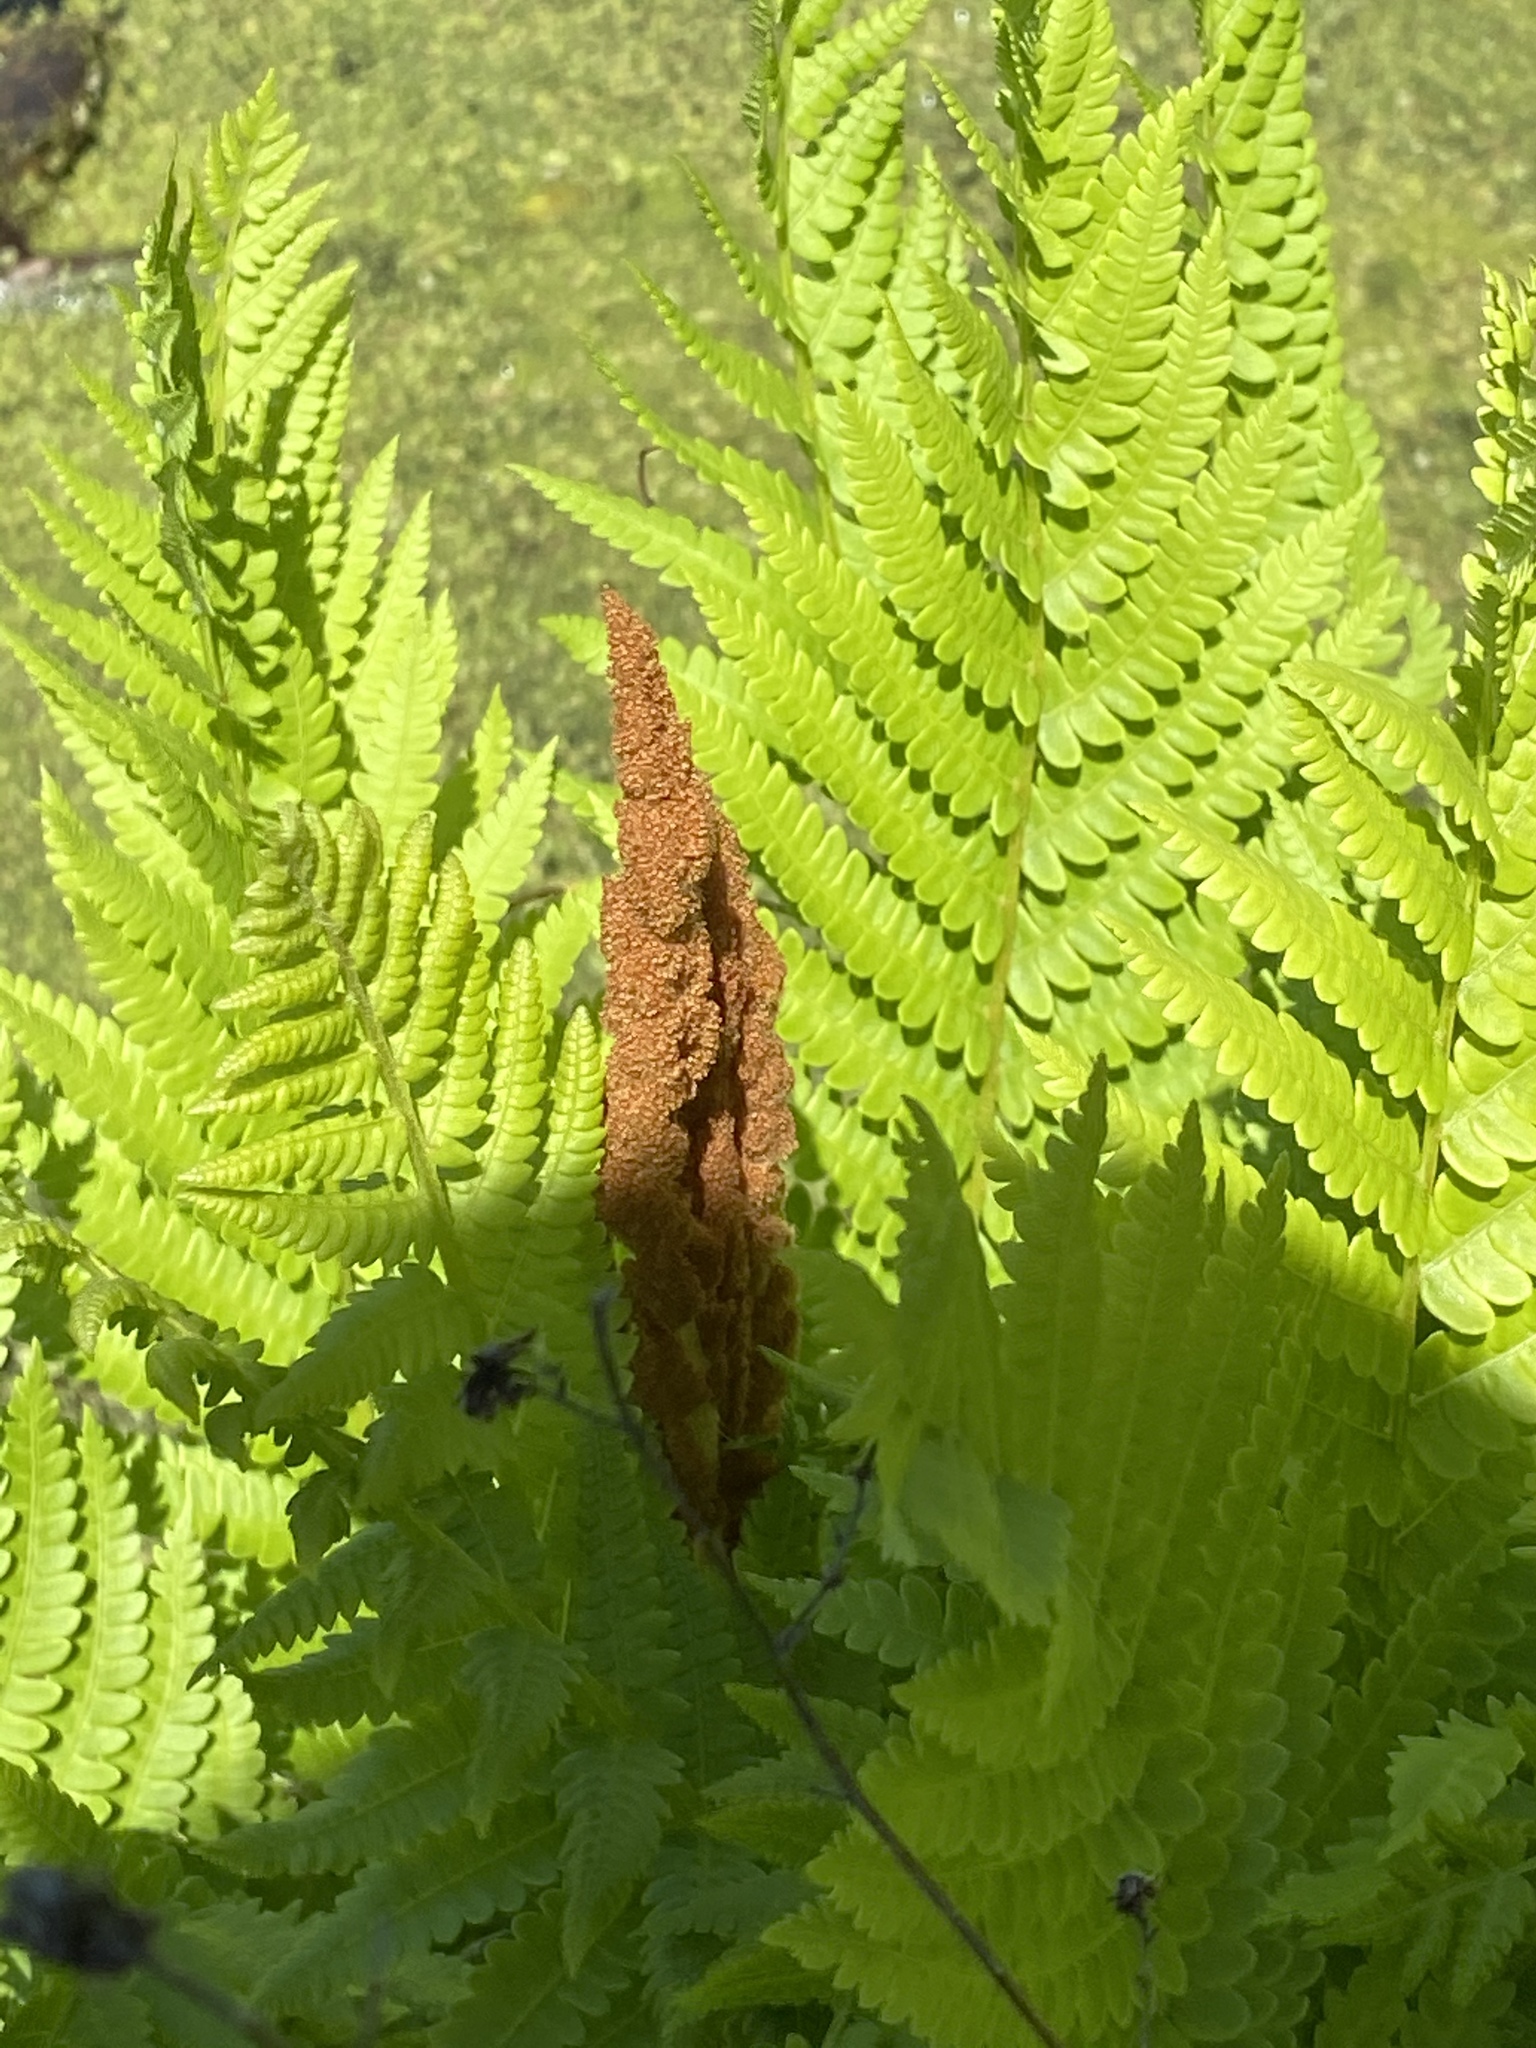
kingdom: Plantae
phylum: Tracheophyta
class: Polypodiopsida
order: Osmundales
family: Osmundaceae
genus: Osmundastrum
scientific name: Osmundastrum cinnamomeum
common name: Cinnamon fern
